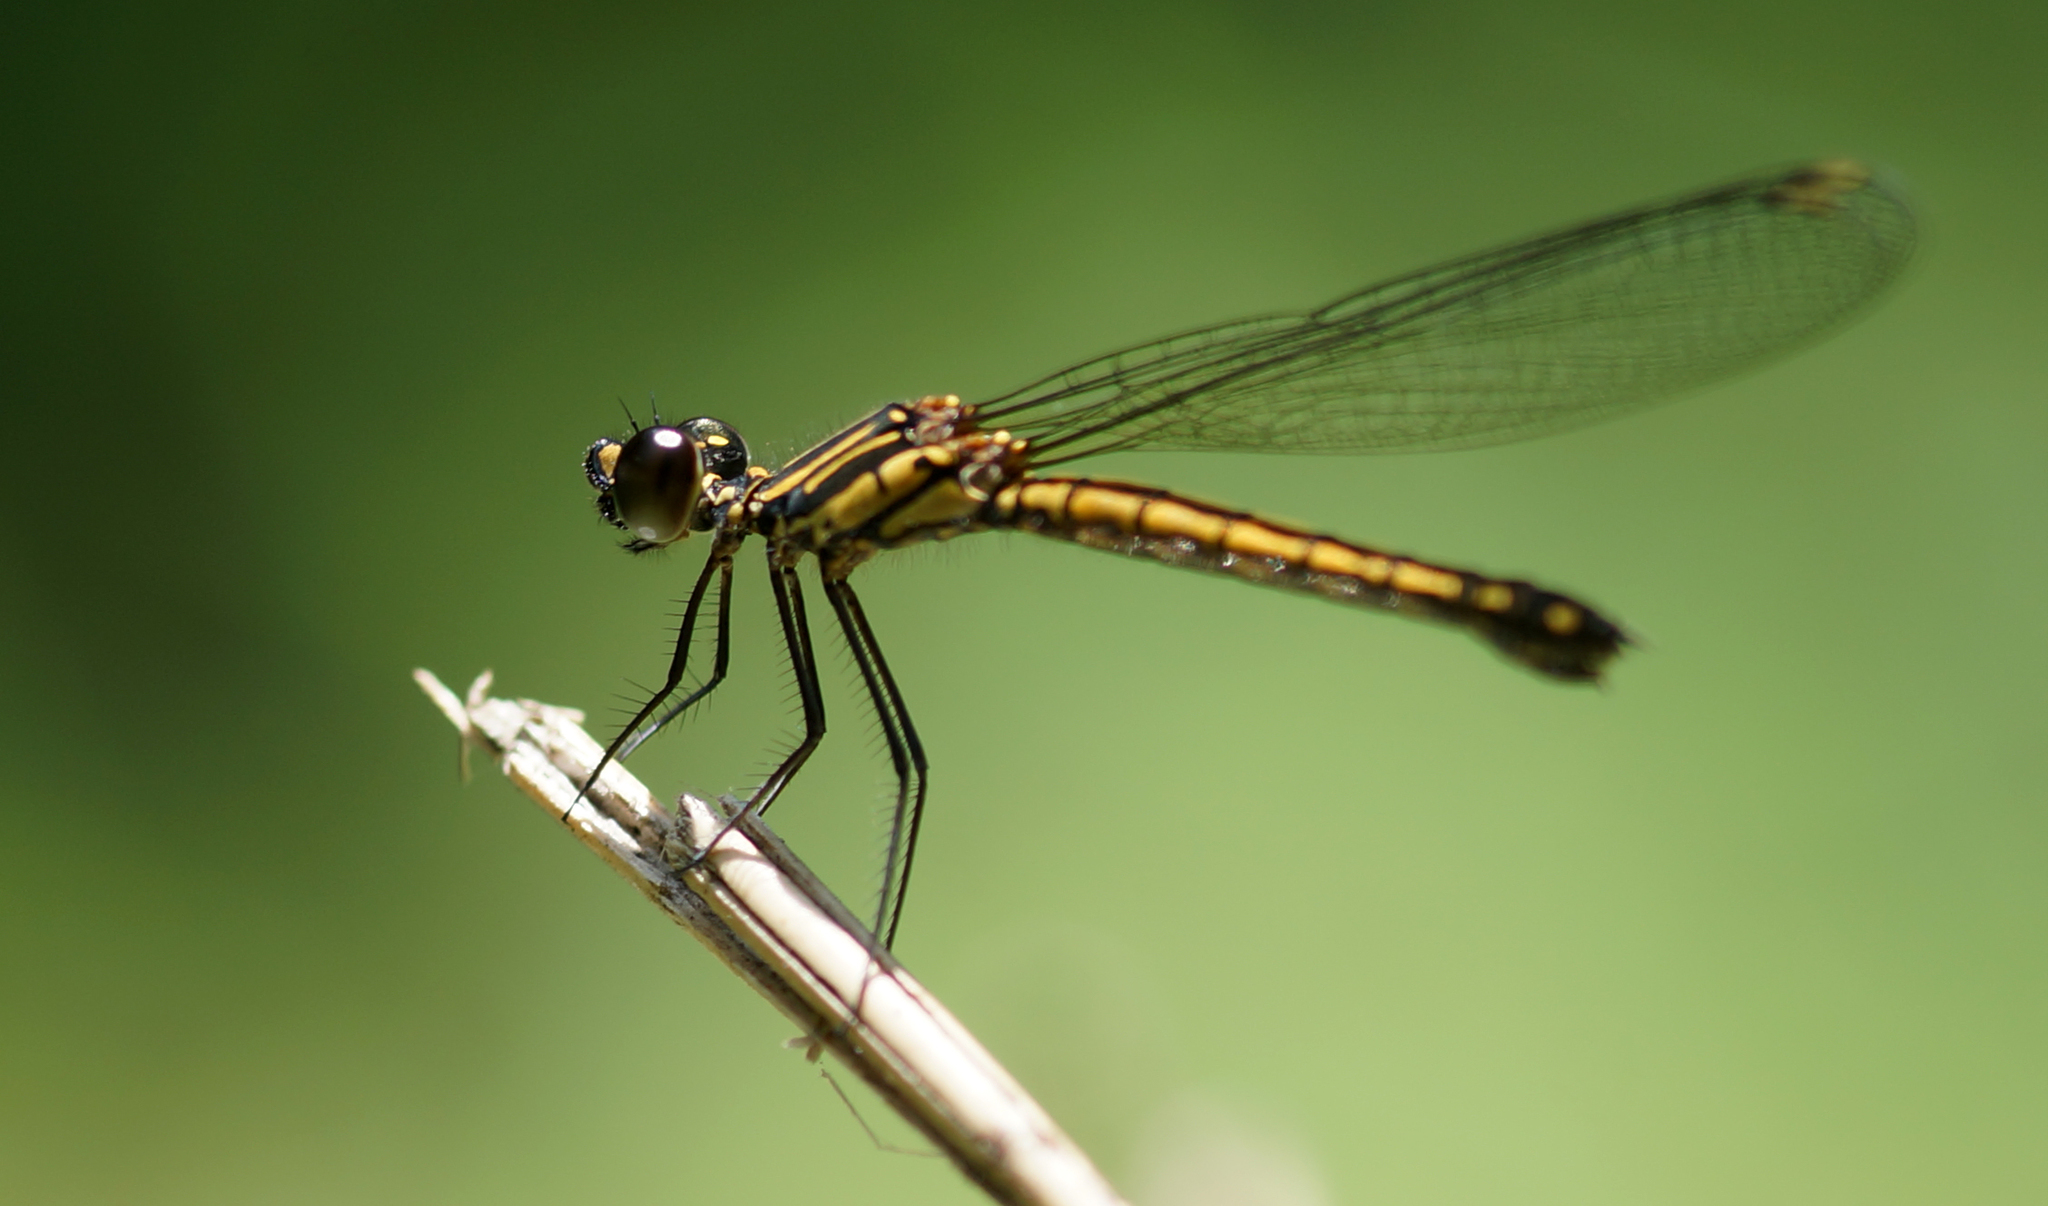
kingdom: Animalia
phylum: Arthropoda
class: Insecta
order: Odonata
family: Chlorocyphidae
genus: Libellago
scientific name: Libellago lineata
